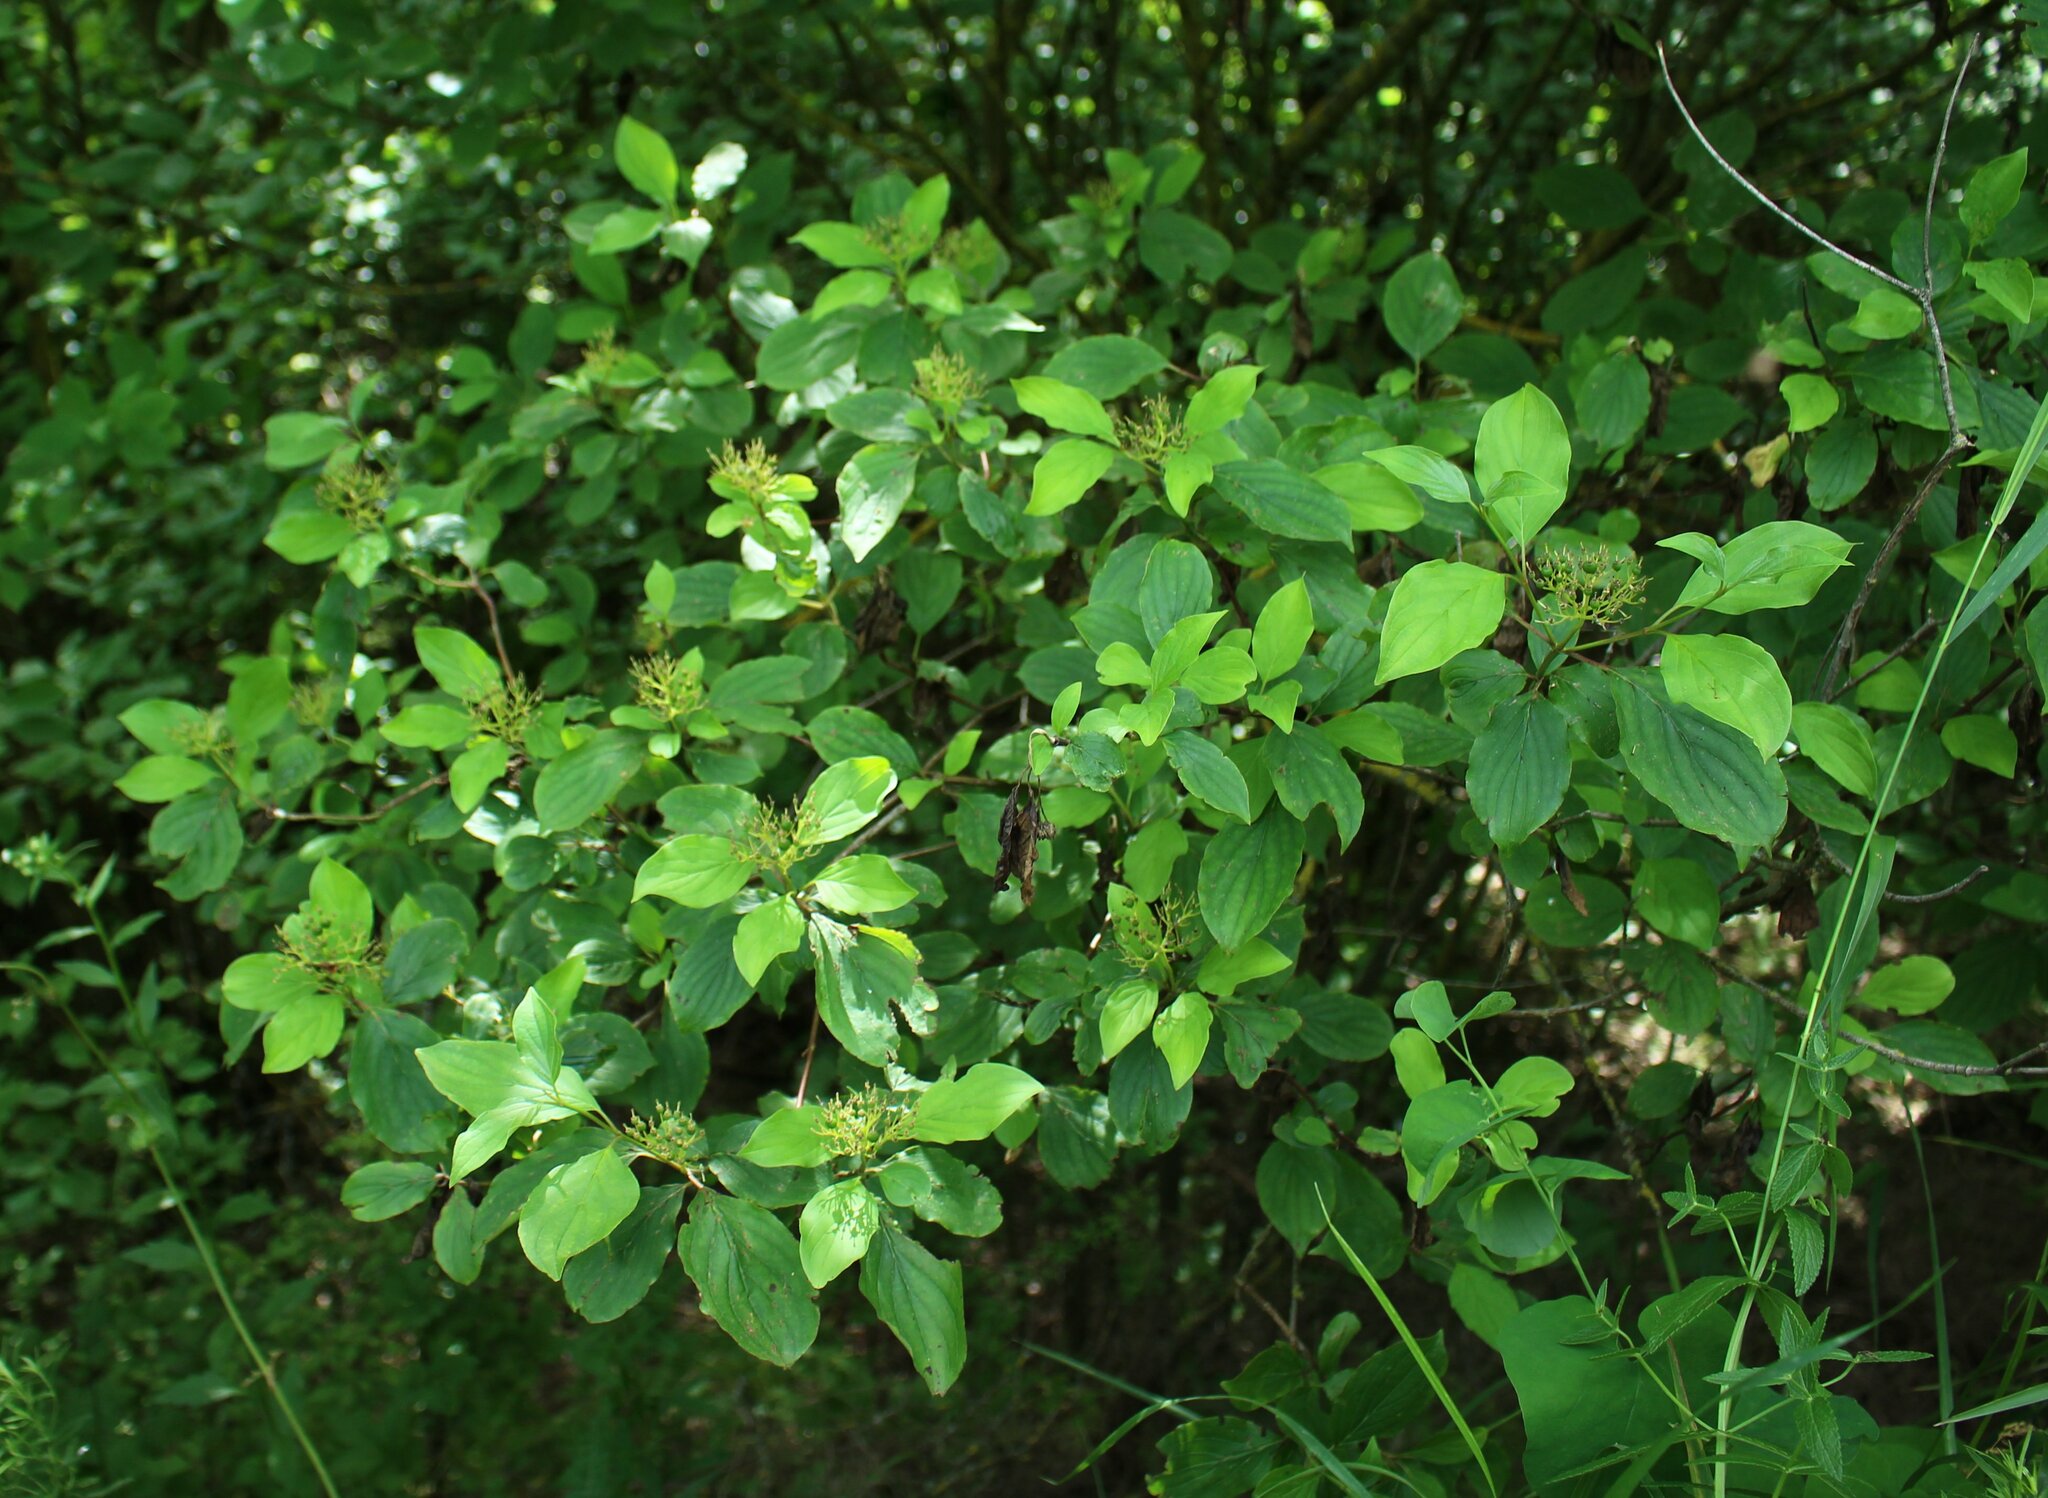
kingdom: Plantae
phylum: Tracheophyta
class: Magnoliopsida
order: Cornales
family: Cornaceae
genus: Cornus
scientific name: Cornus sanguinea
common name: Dogwood
